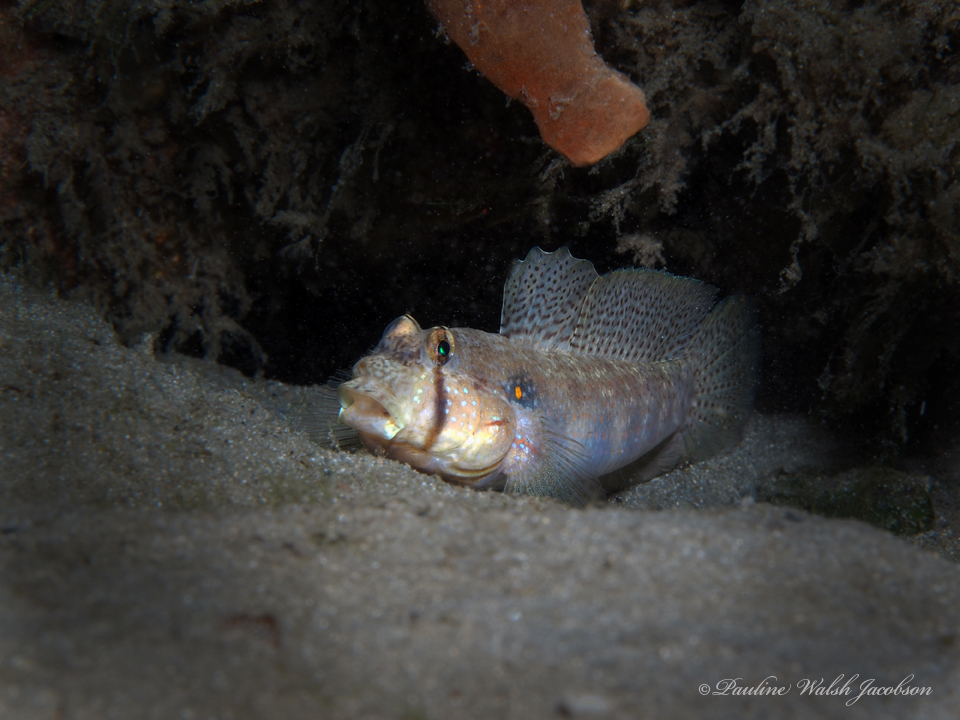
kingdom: Animalia
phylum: Chordata
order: Perciformes
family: Gobiidae
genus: Gnatholepis
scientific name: Gnatholepis thompsoni
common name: Goldspot goby
